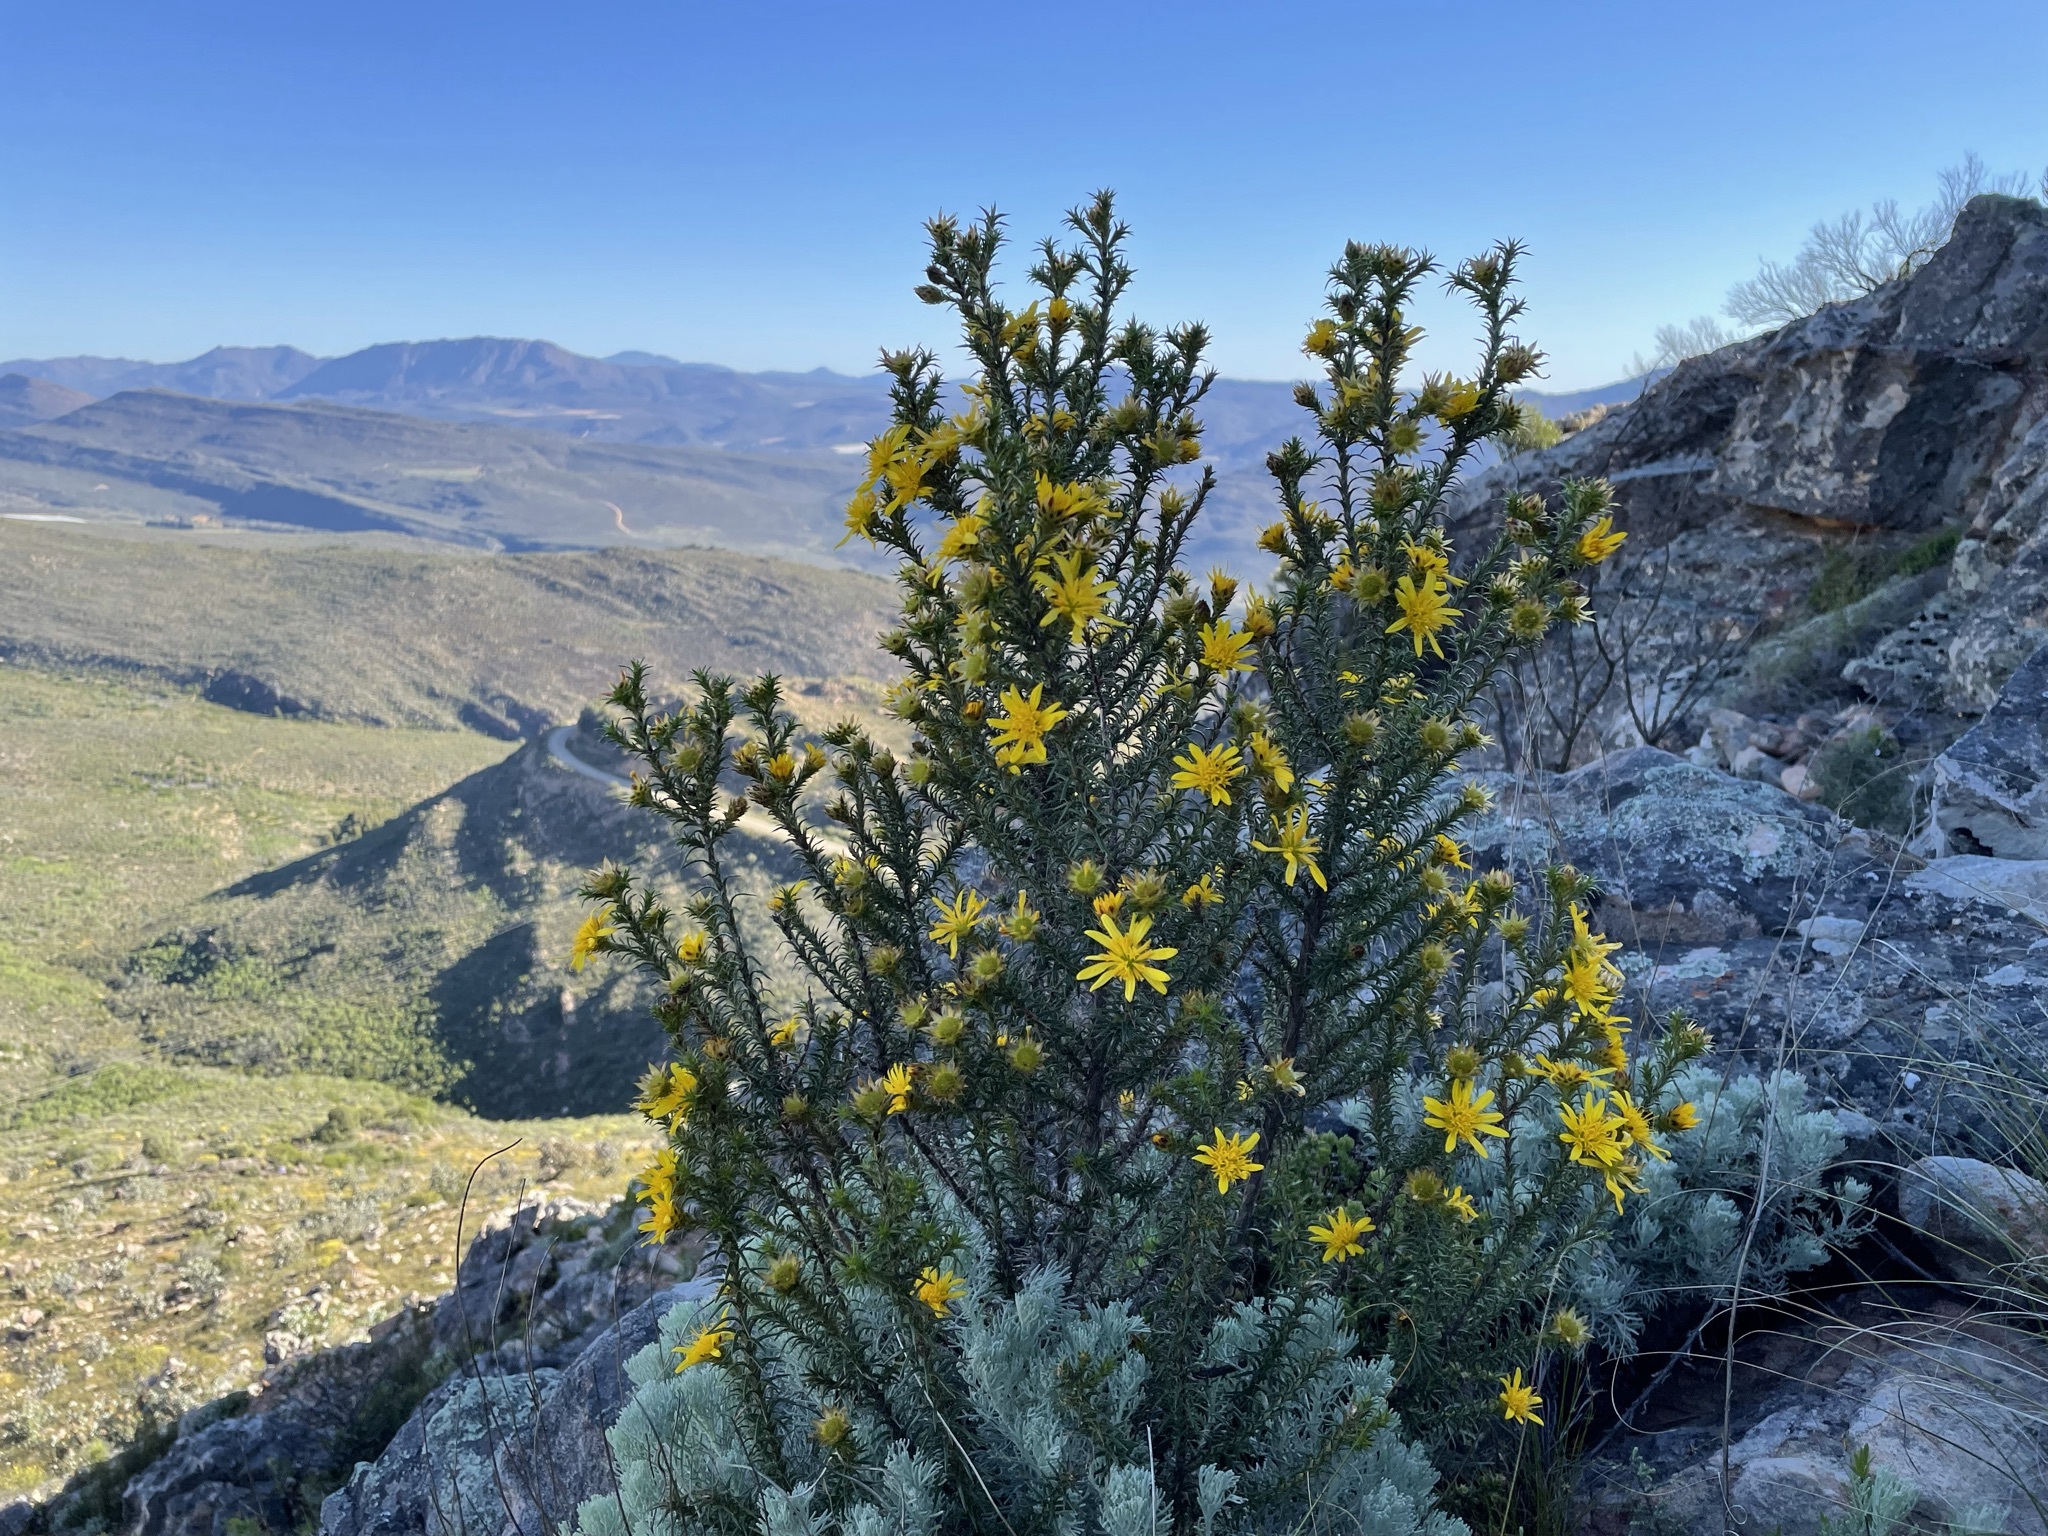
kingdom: Plantae
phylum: Tracheophyta
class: Magnoliopsida
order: Asterales
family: Asteraceae
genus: Cullumia
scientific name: Cullumia bisulca
